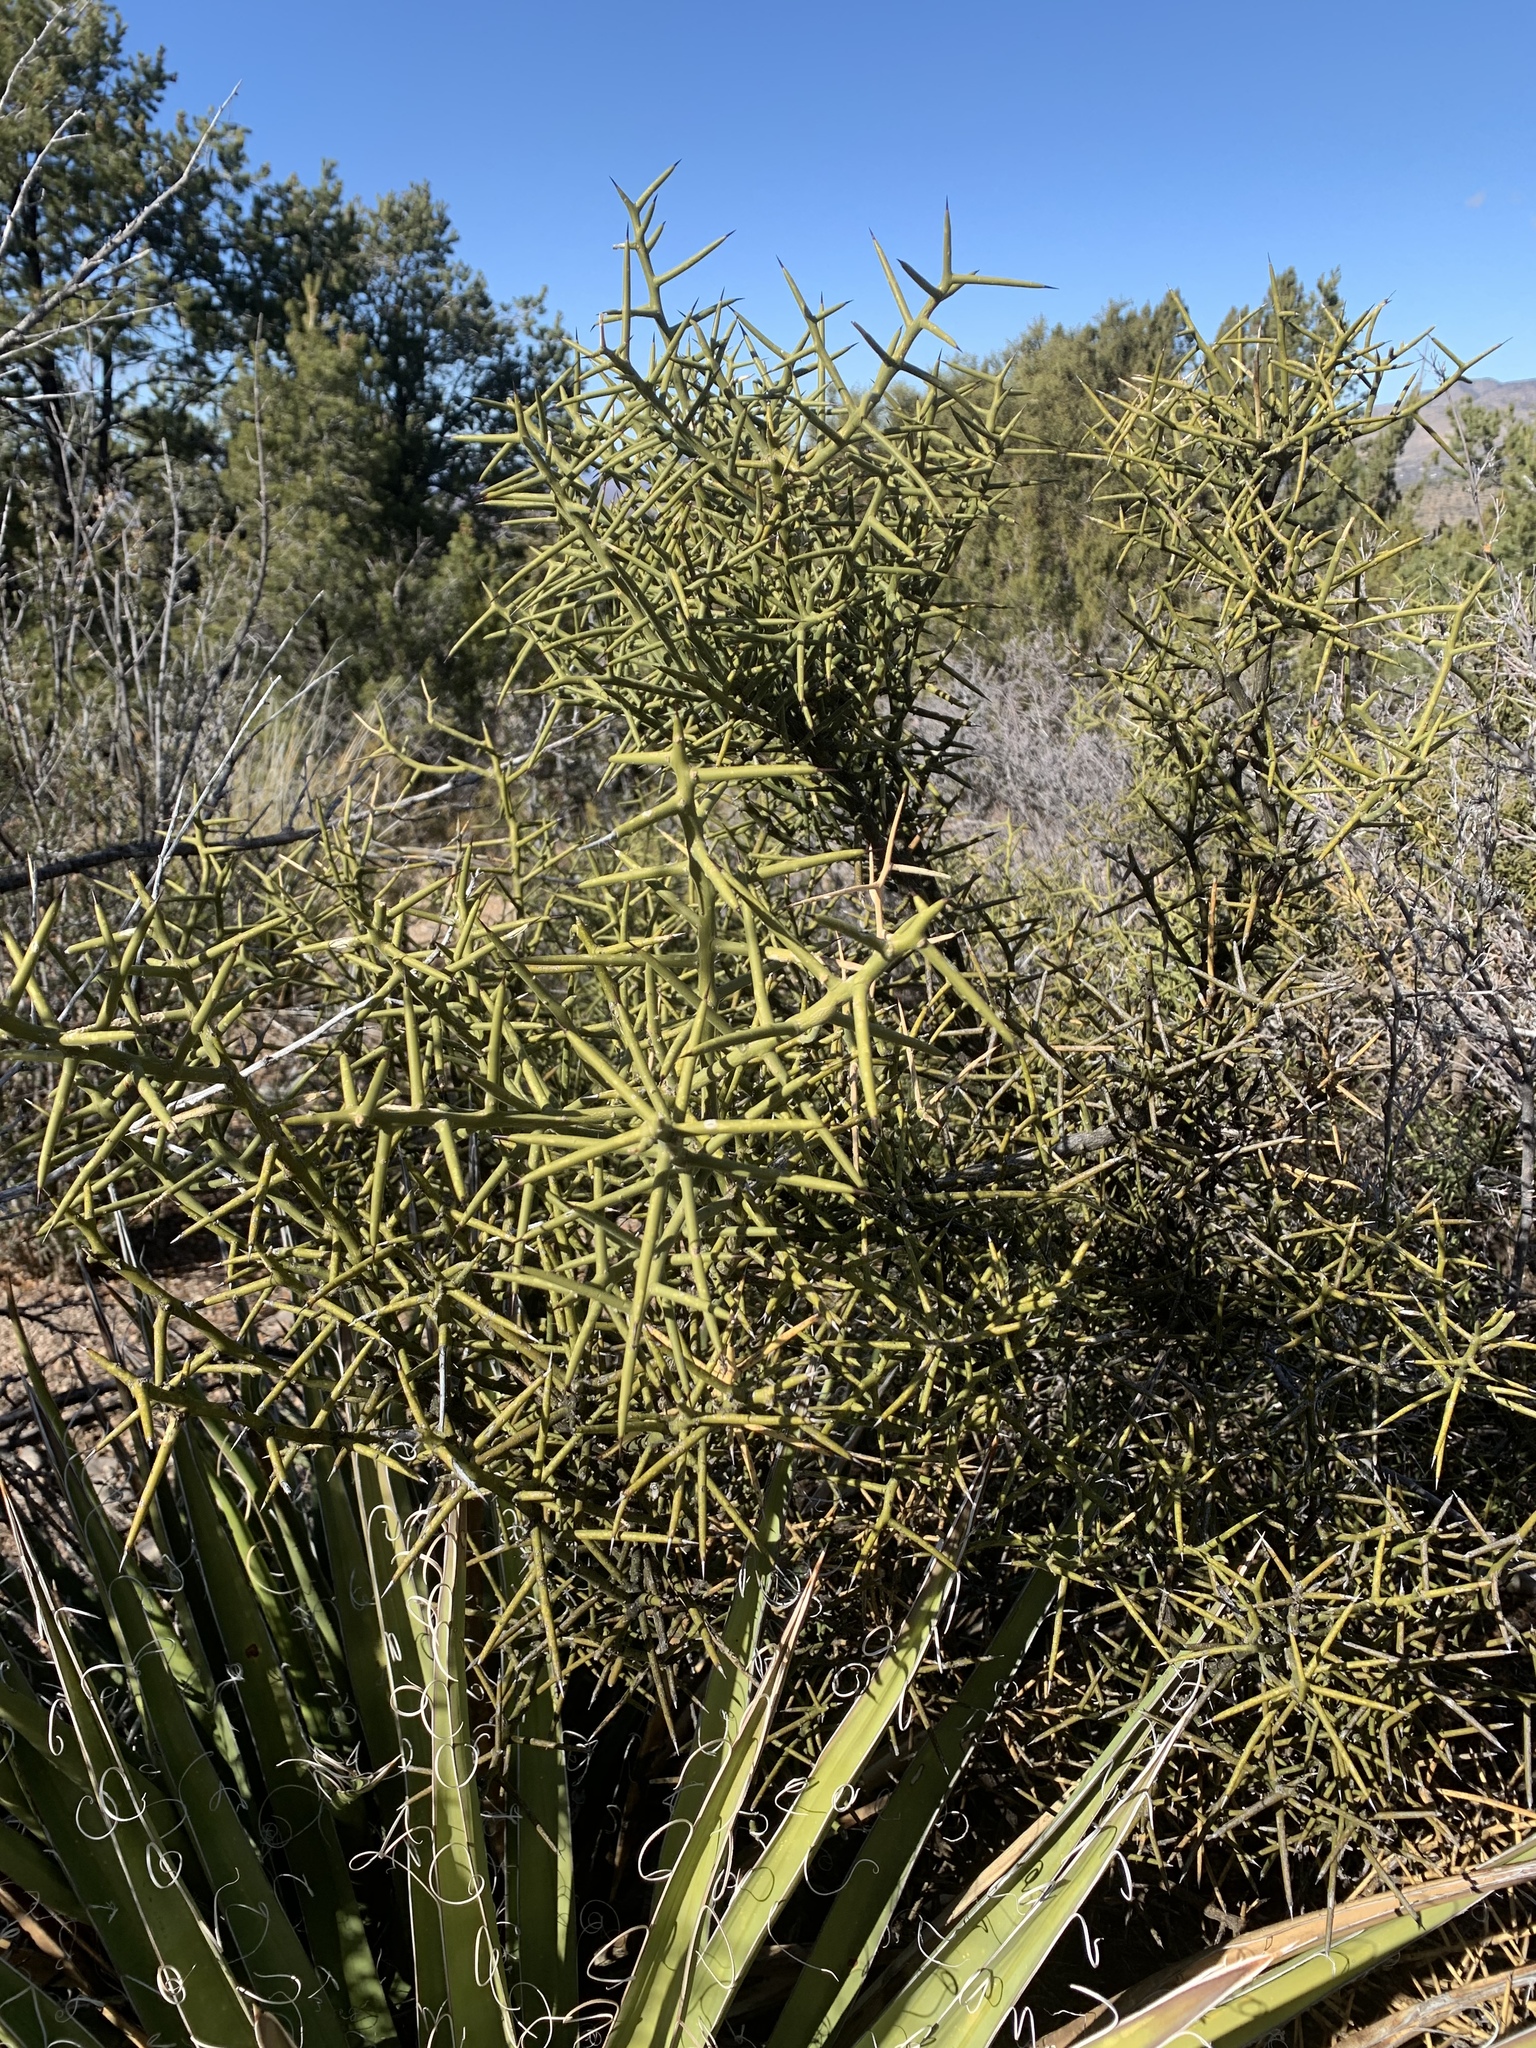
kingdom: Plantae
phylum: Tracheophyta
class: Magnoliopsida
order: Brassicales
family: Koeberliniaceae
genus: Koeberlinia
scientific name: Koeberlinia spinosa
